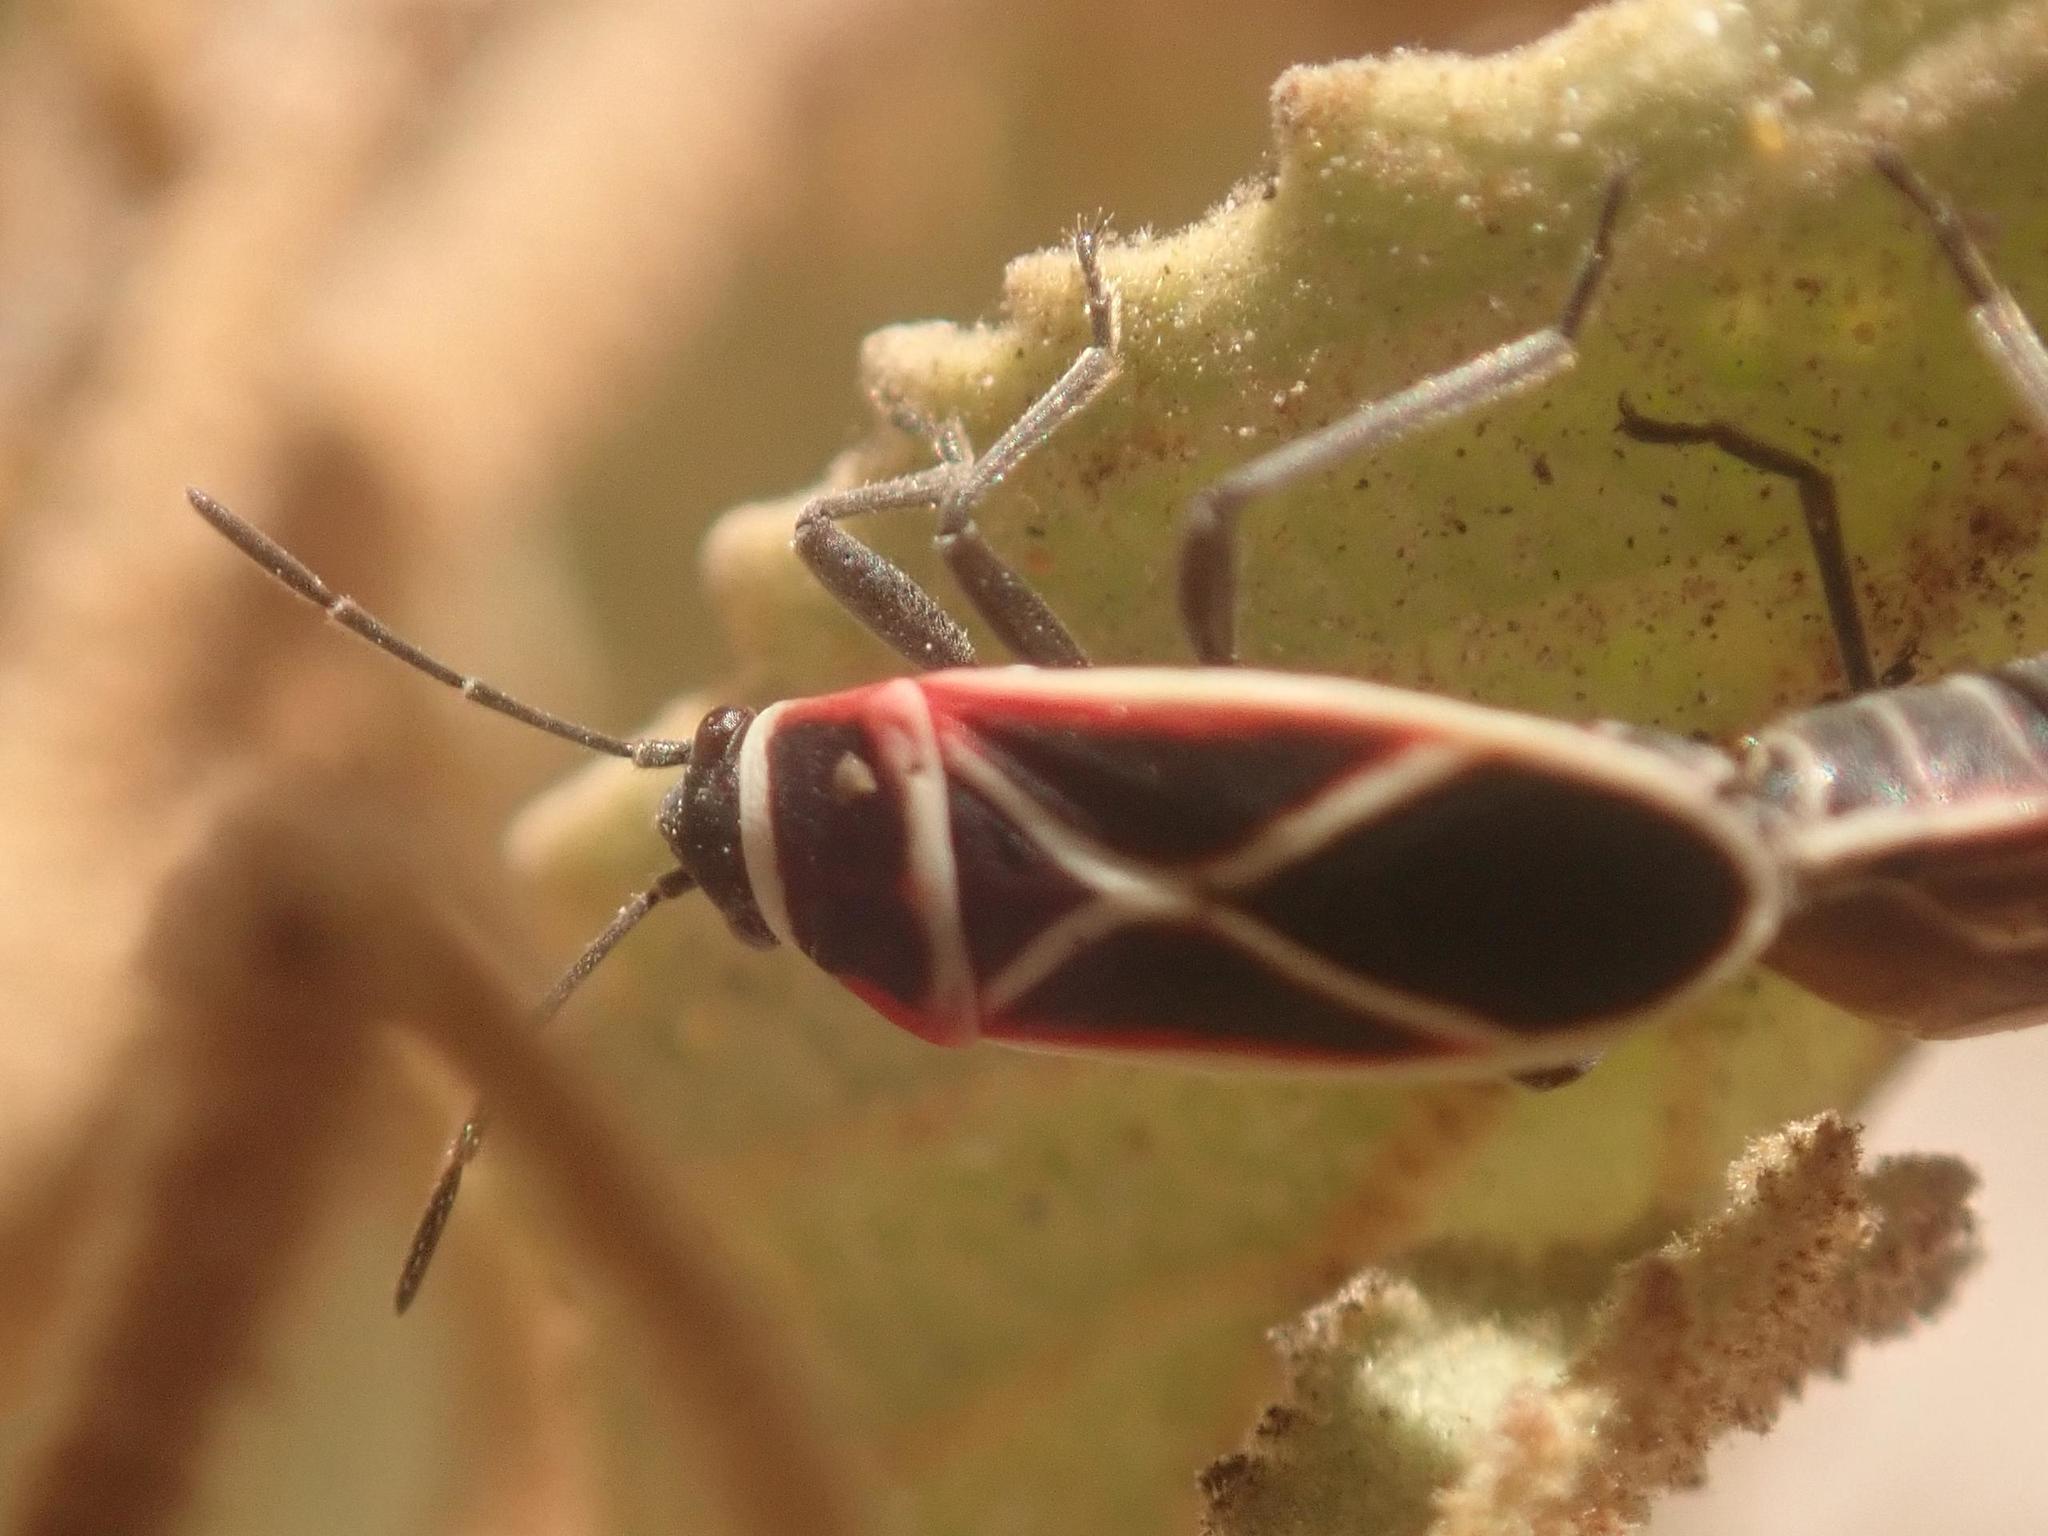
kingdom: Animalia
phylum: Arthropoda
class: Insecta
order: Hemiptera
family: Lygaeidae
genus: Ochrostomus
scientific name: Ochrostomus pulchellus
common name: Lygaeid bug
